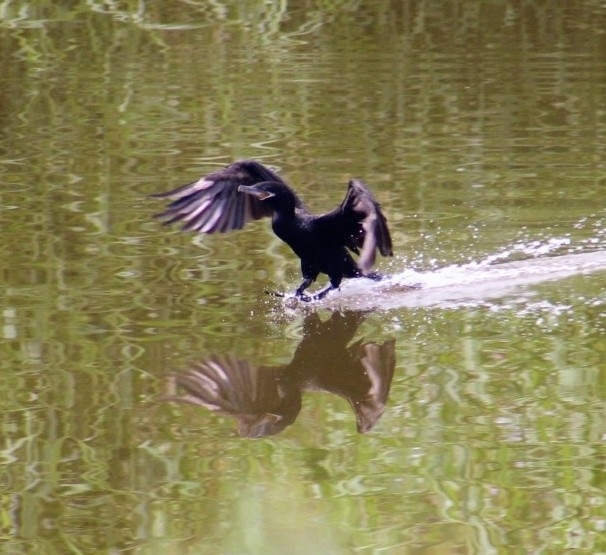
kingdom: Animalia
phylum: Chordata
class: Aves
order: Suliformes
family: Phalacrocoracidae
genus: Phalacrocorax
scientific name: Phalacrocorax brasilianus
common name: Neotropic cormorant
